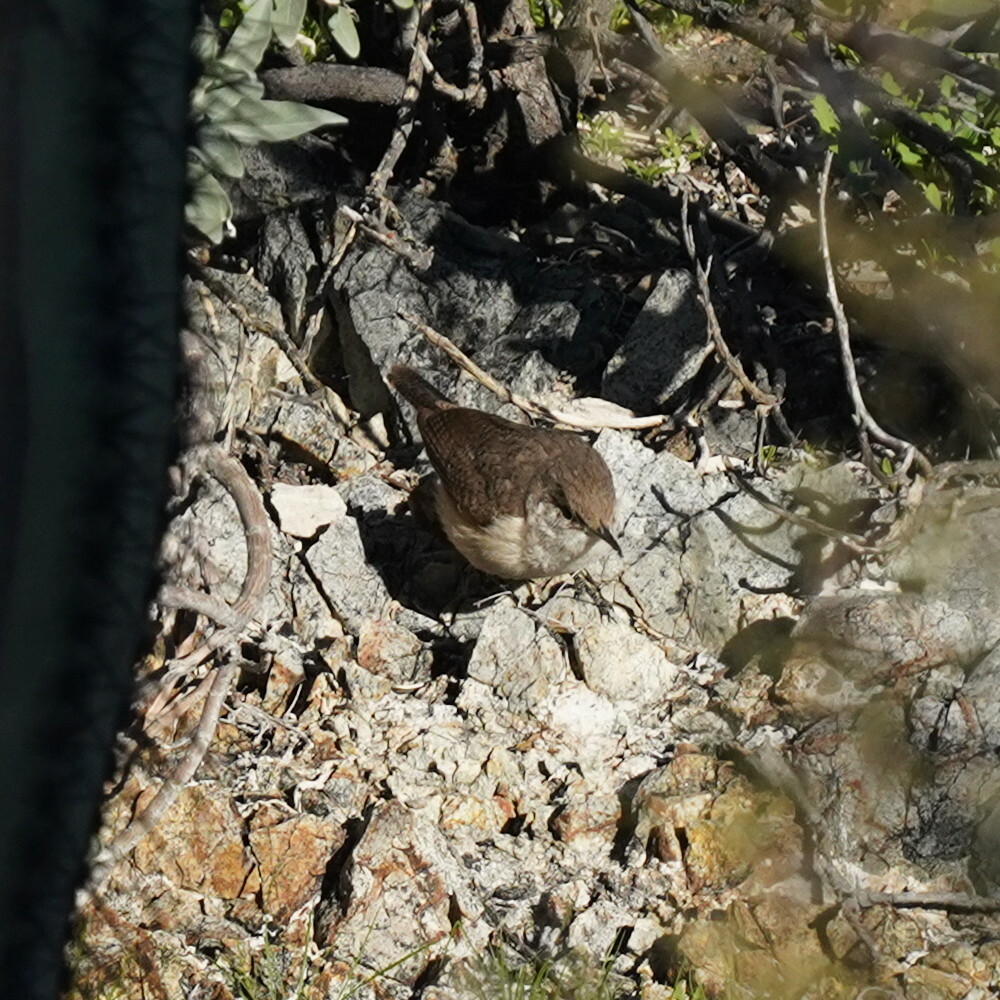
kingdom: Animalia
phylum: Chordata
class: Aves
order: Passeriformes
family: Troglodytidae
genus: Salpinctes
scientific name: Salpinctes obsoletus
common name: Rock wren
